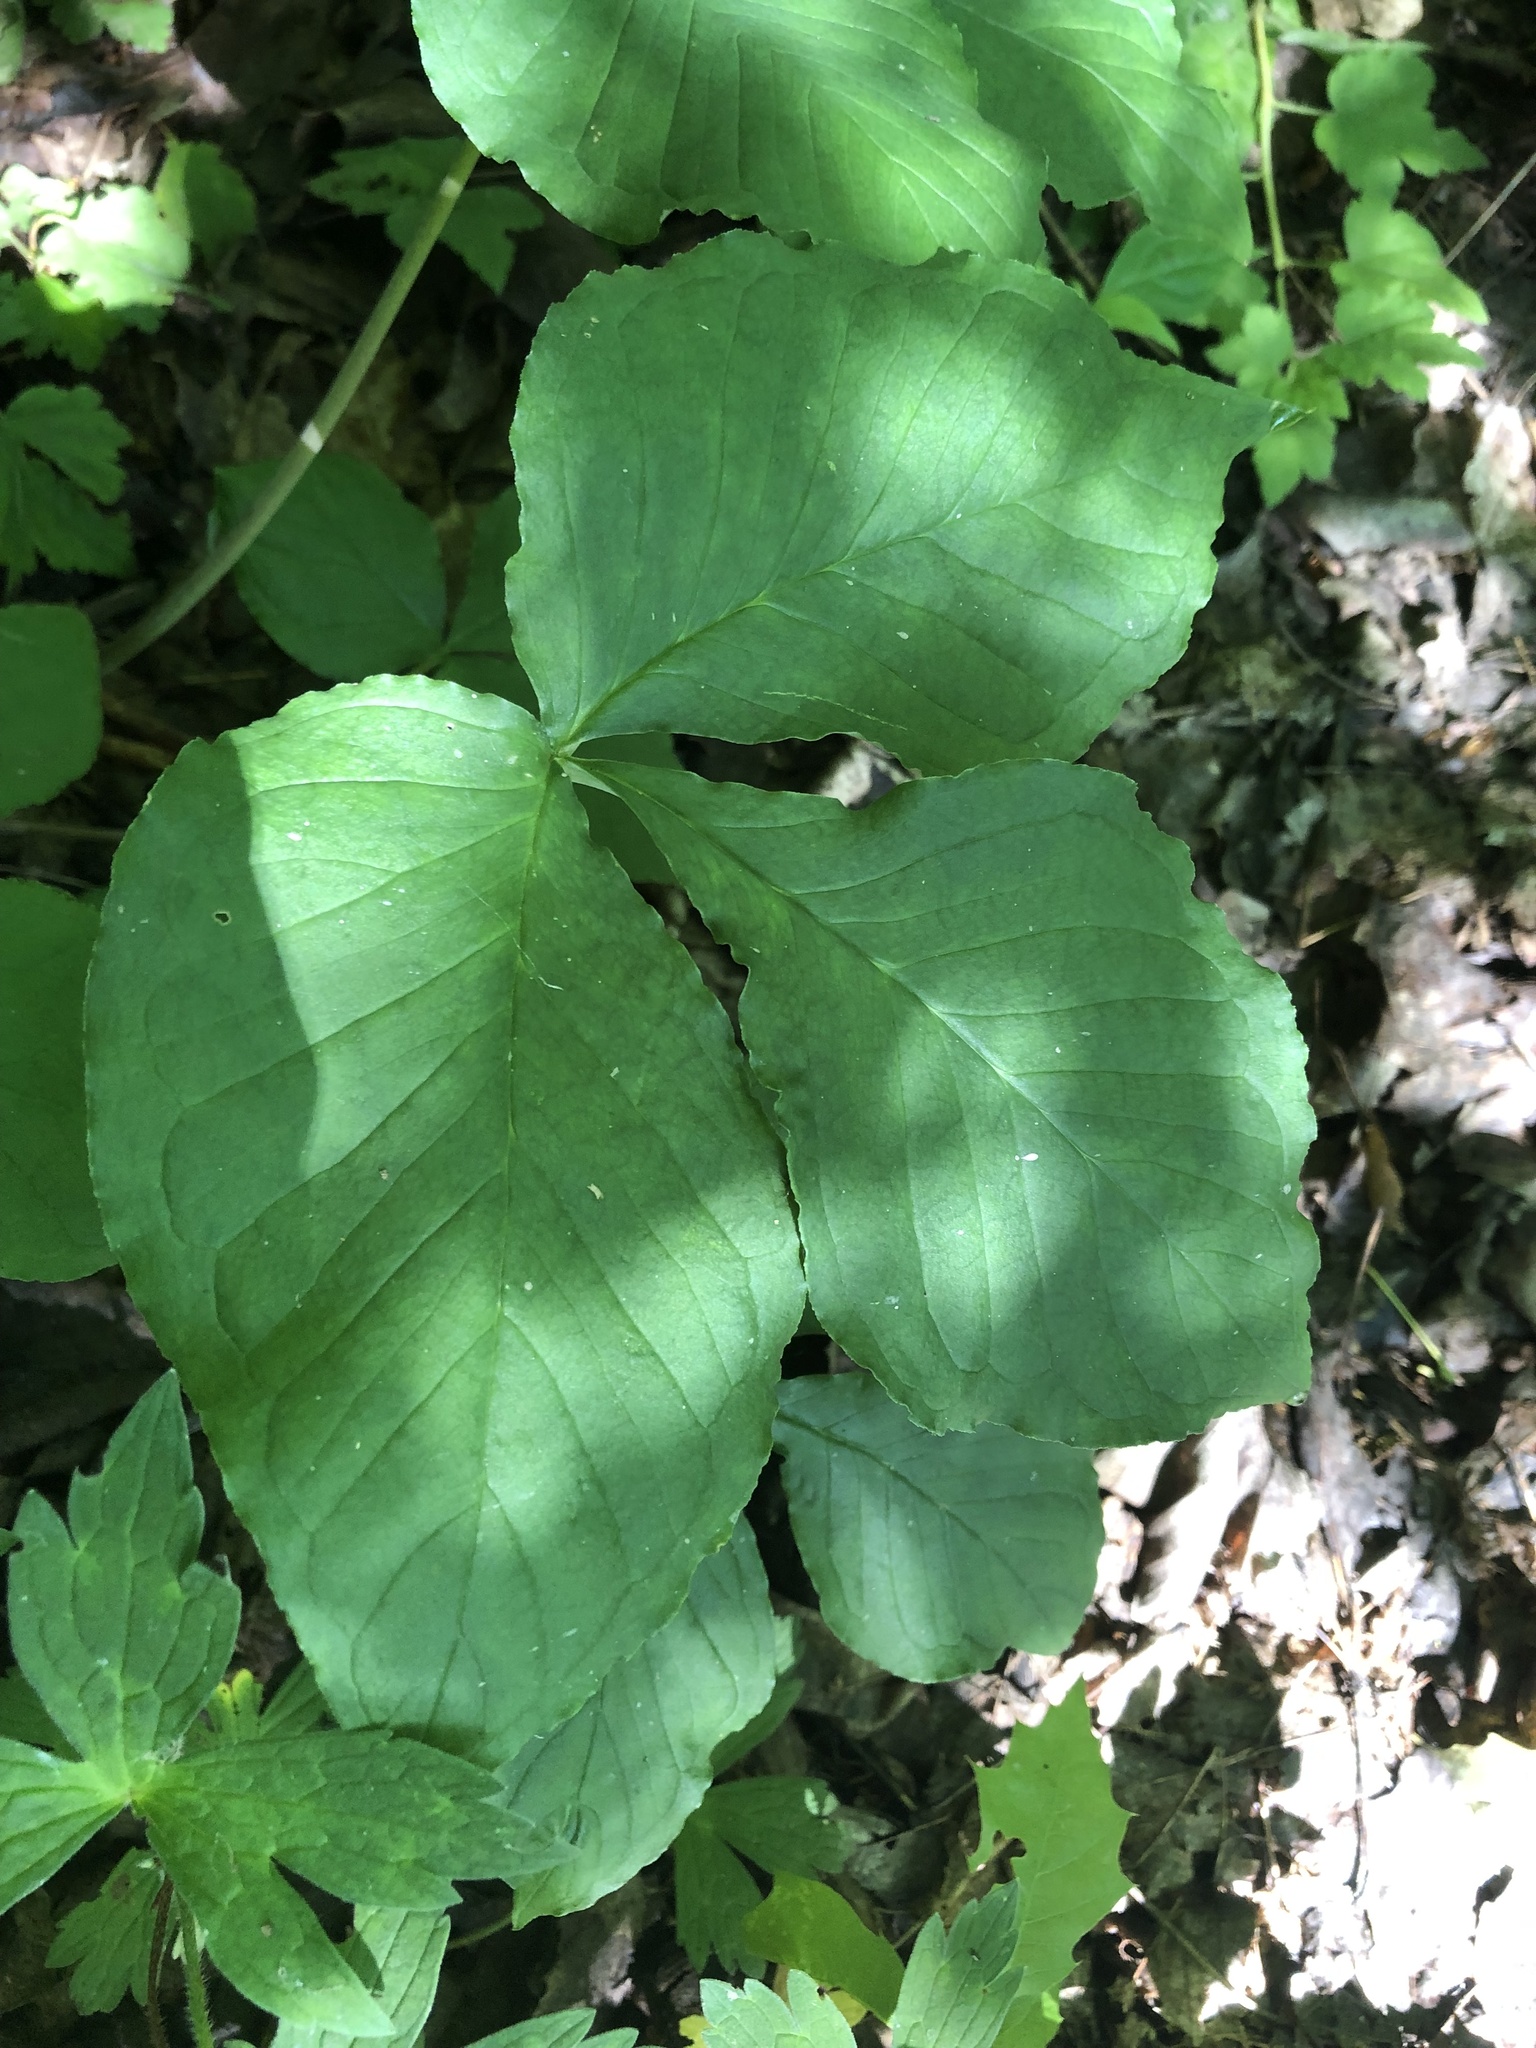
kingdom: Plantae
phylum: Tracheophyta
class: Liliopsida
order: Alismatales
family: Araceae
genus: Arisaema
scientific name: Arisaema triphyllum
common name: Jack-in-the-pulpit
